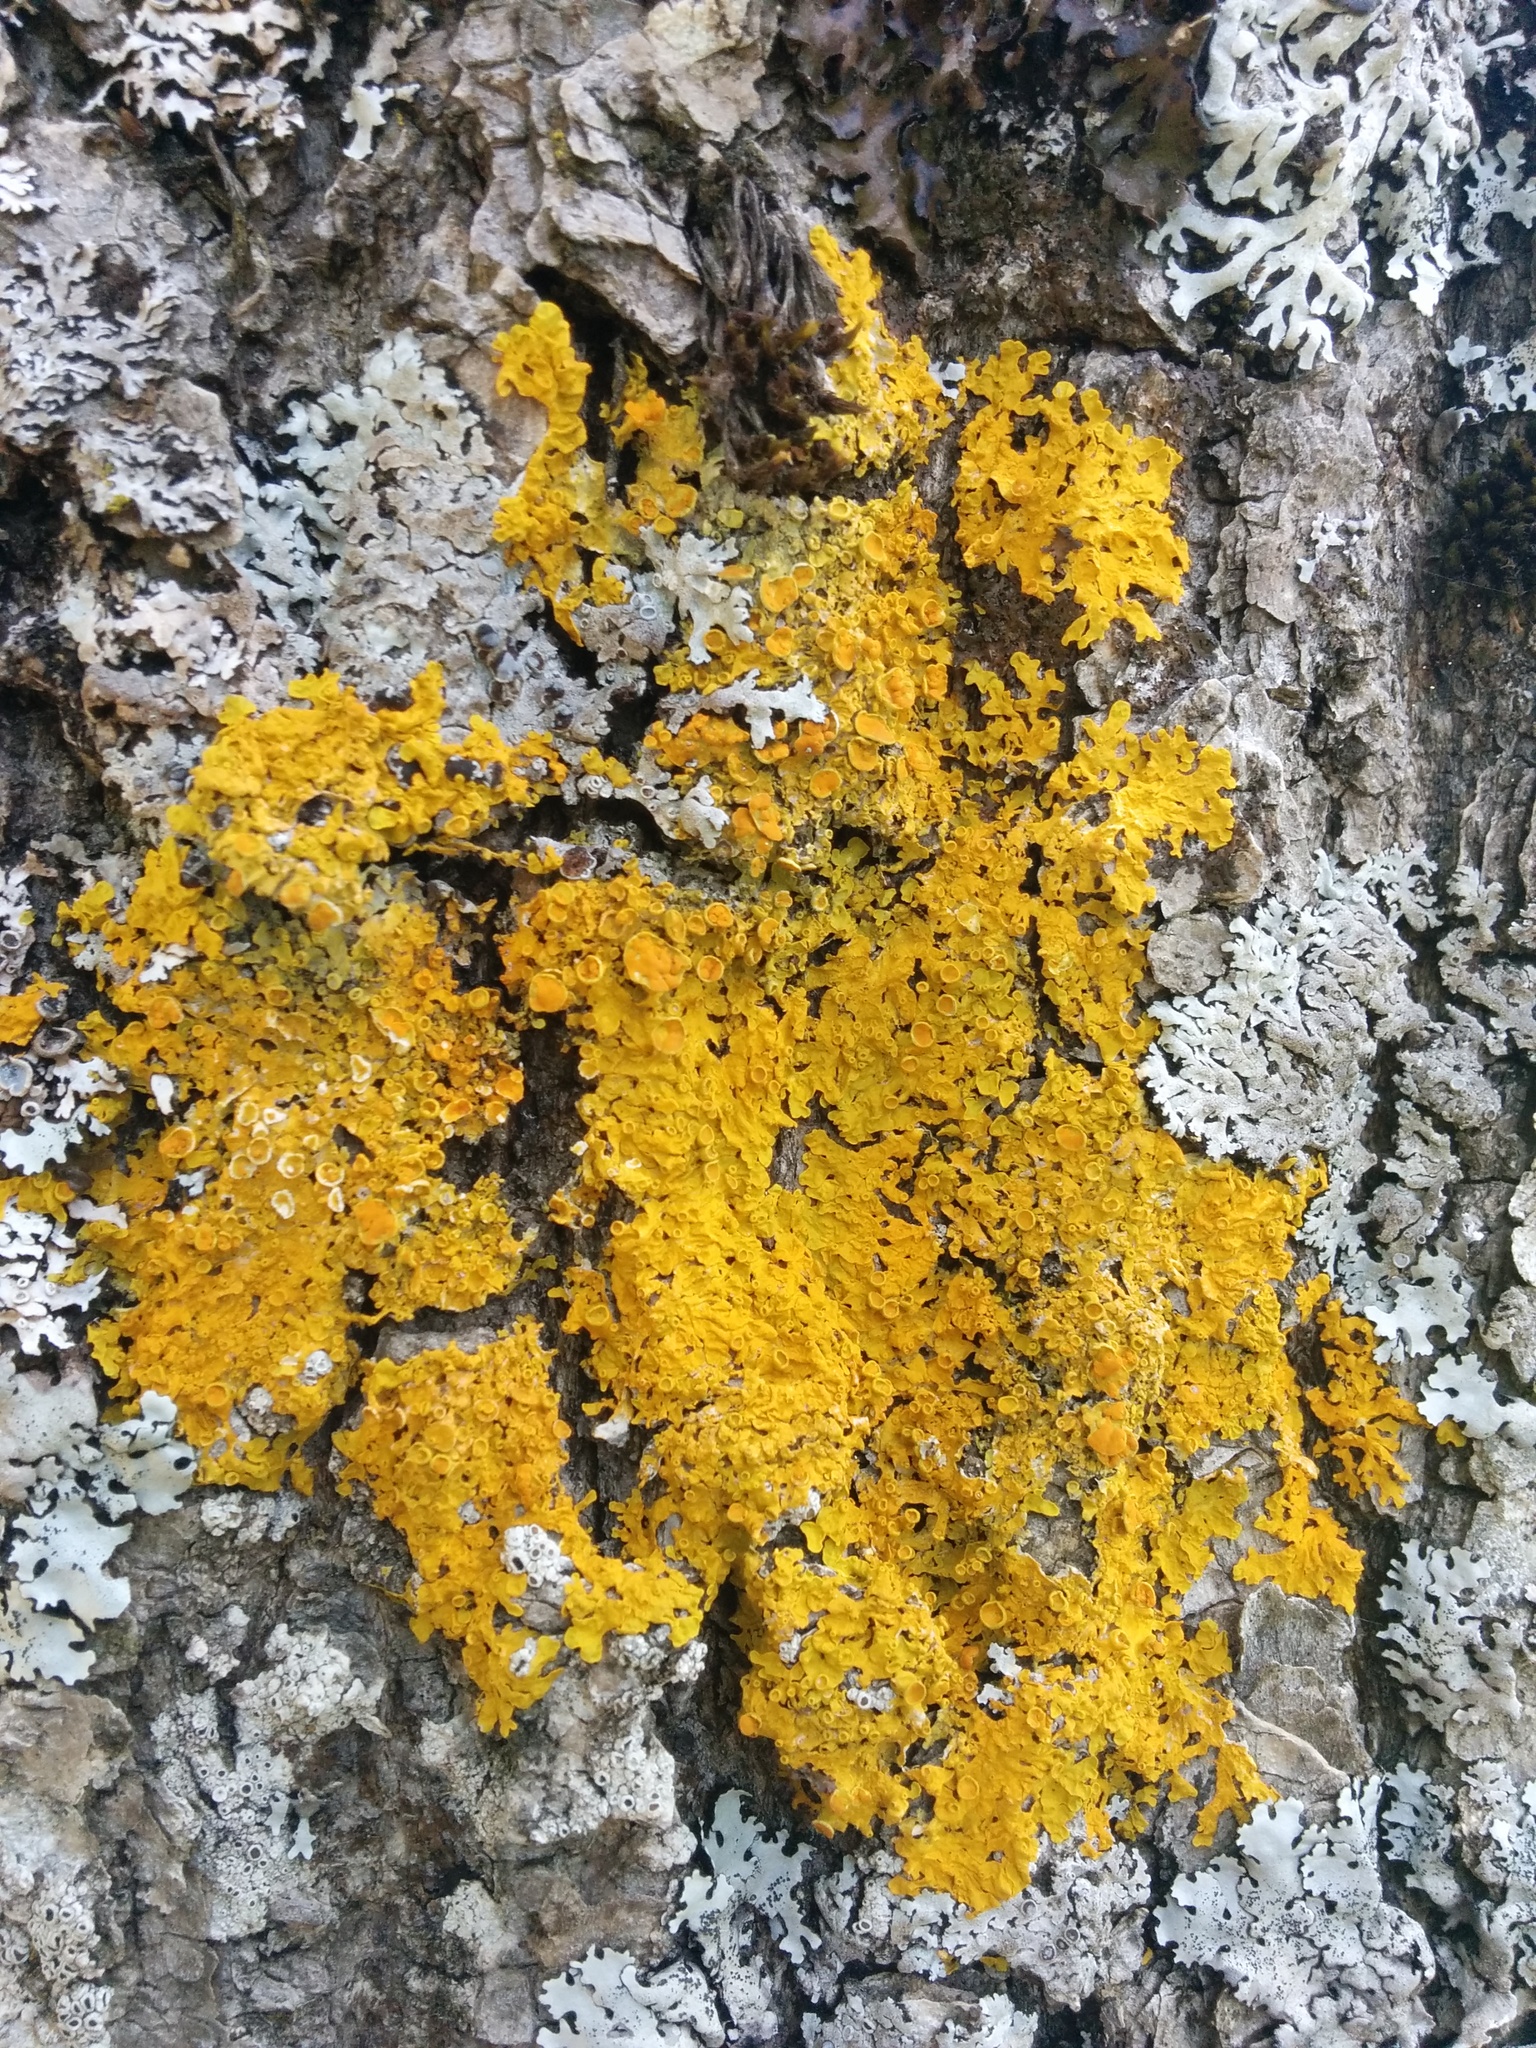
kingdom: Fungi
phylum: Ascomycota
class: Lecanoromycetes
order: Teloschistales
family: Teloschistaceae
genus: Xanthoria
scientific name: Xanthoria parietina
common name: Common orange lichen
